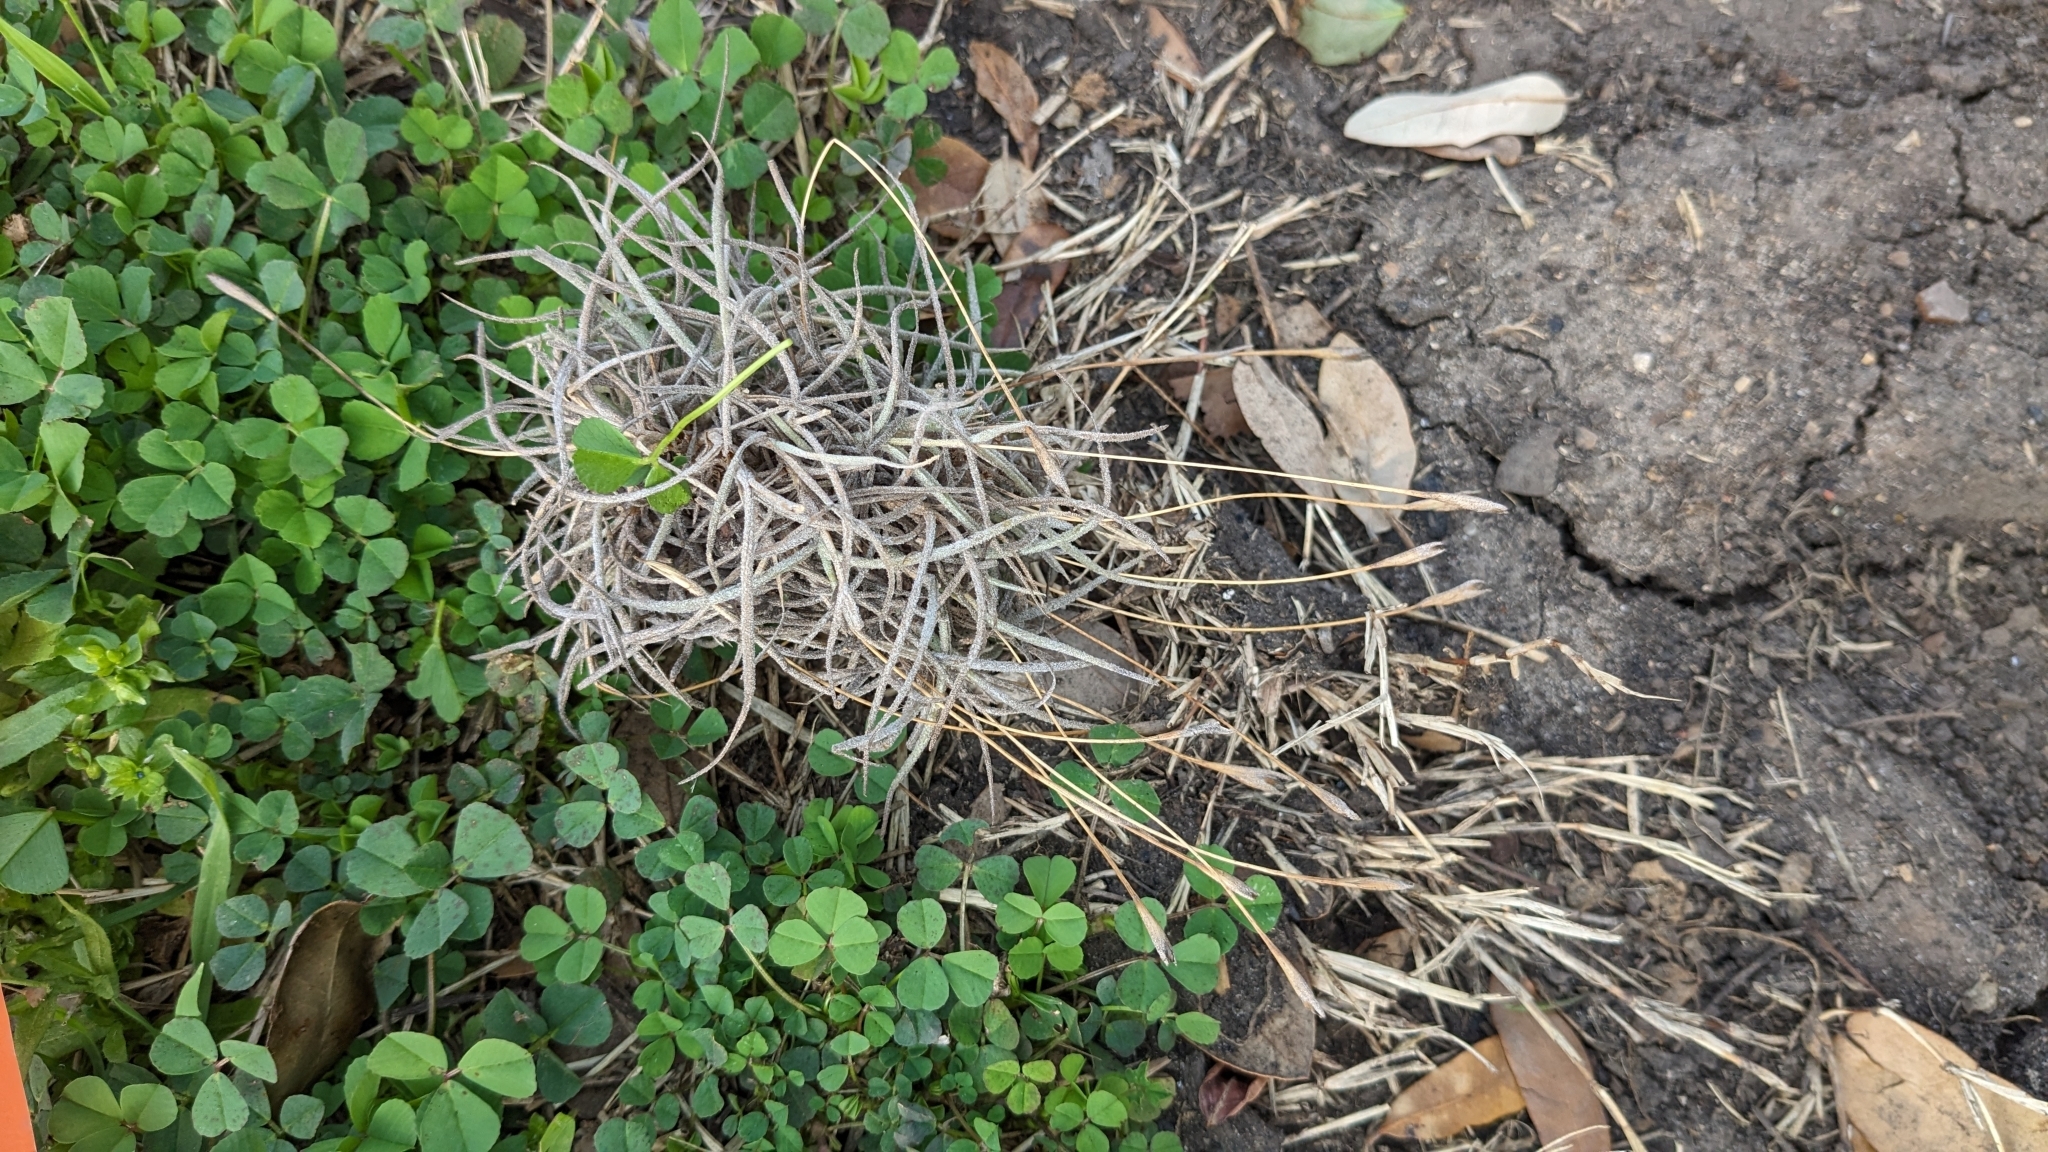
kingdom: Plantae
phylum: Tracheophyta
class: Liliopsida
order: Poales
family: Bromeliaceae
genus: Tillandsia
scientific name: Tillandsia recurvata
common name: Small ballmoss
